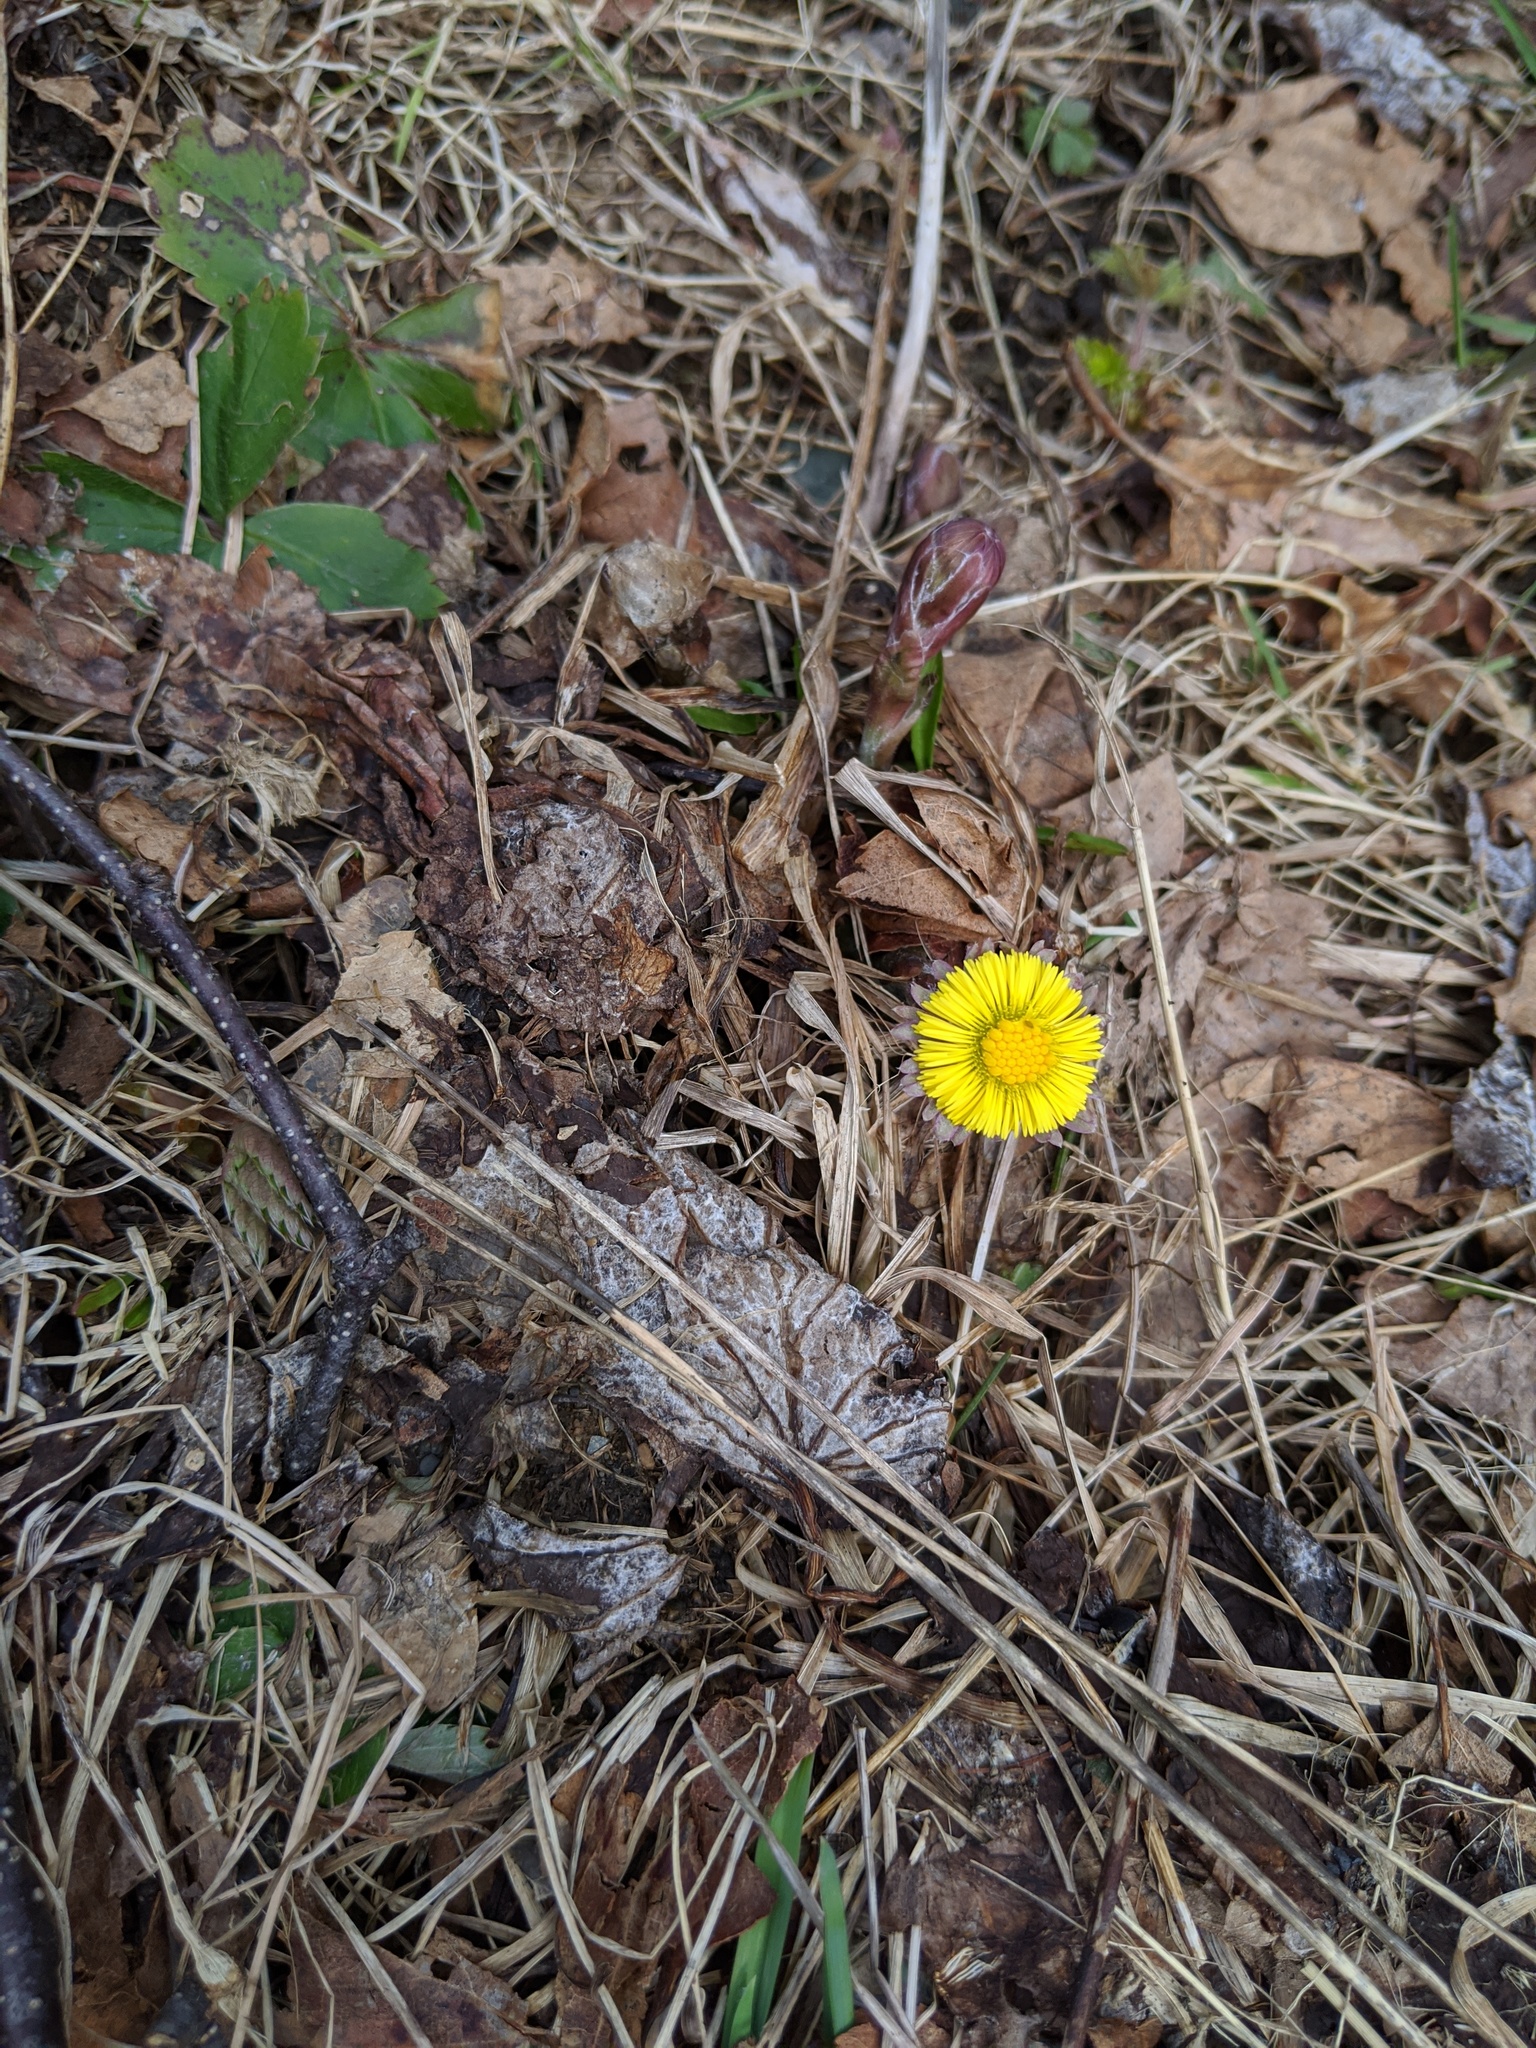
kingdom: Plantae
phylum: Tracheophyta
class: Magnoliopsida
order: Asterales
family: Asteraceae
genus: Tussilago
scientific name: Tussilago farfara
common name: Coltsfoot
